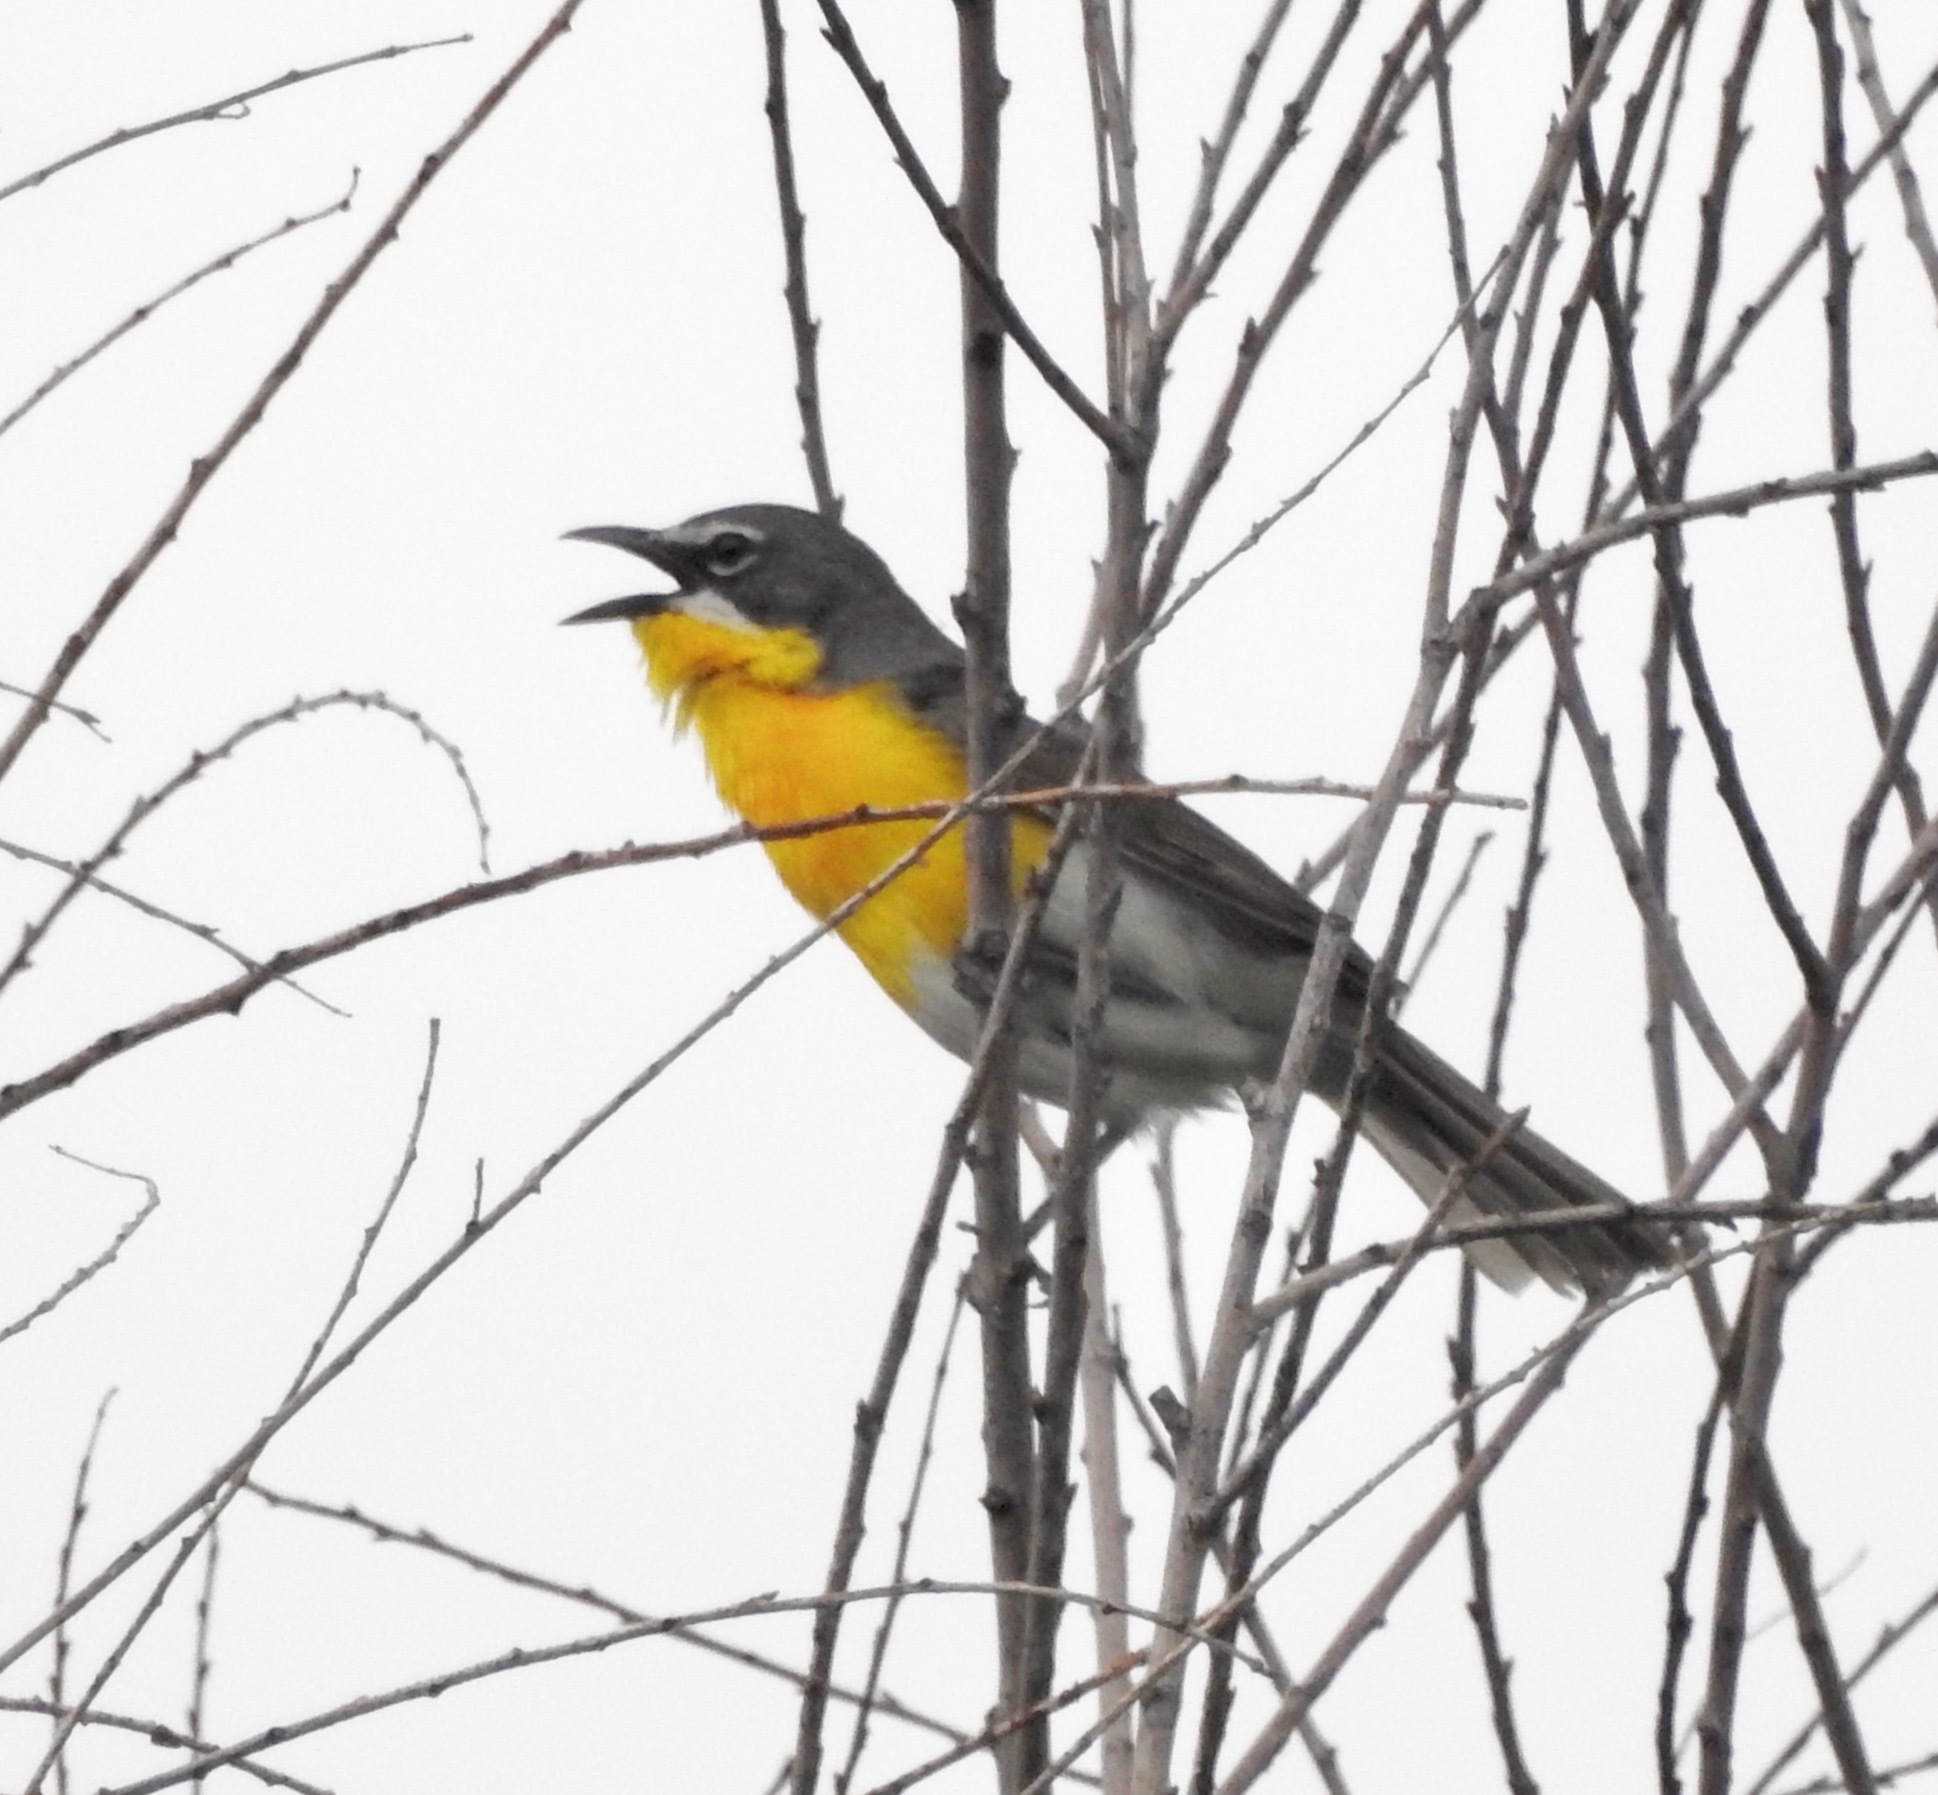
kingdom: Animalia
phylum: Chordata
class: Aves
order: Passeriformes
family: Parulidae
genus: Icteria
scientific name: Icteria virens
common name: Yellow-breasted chat
